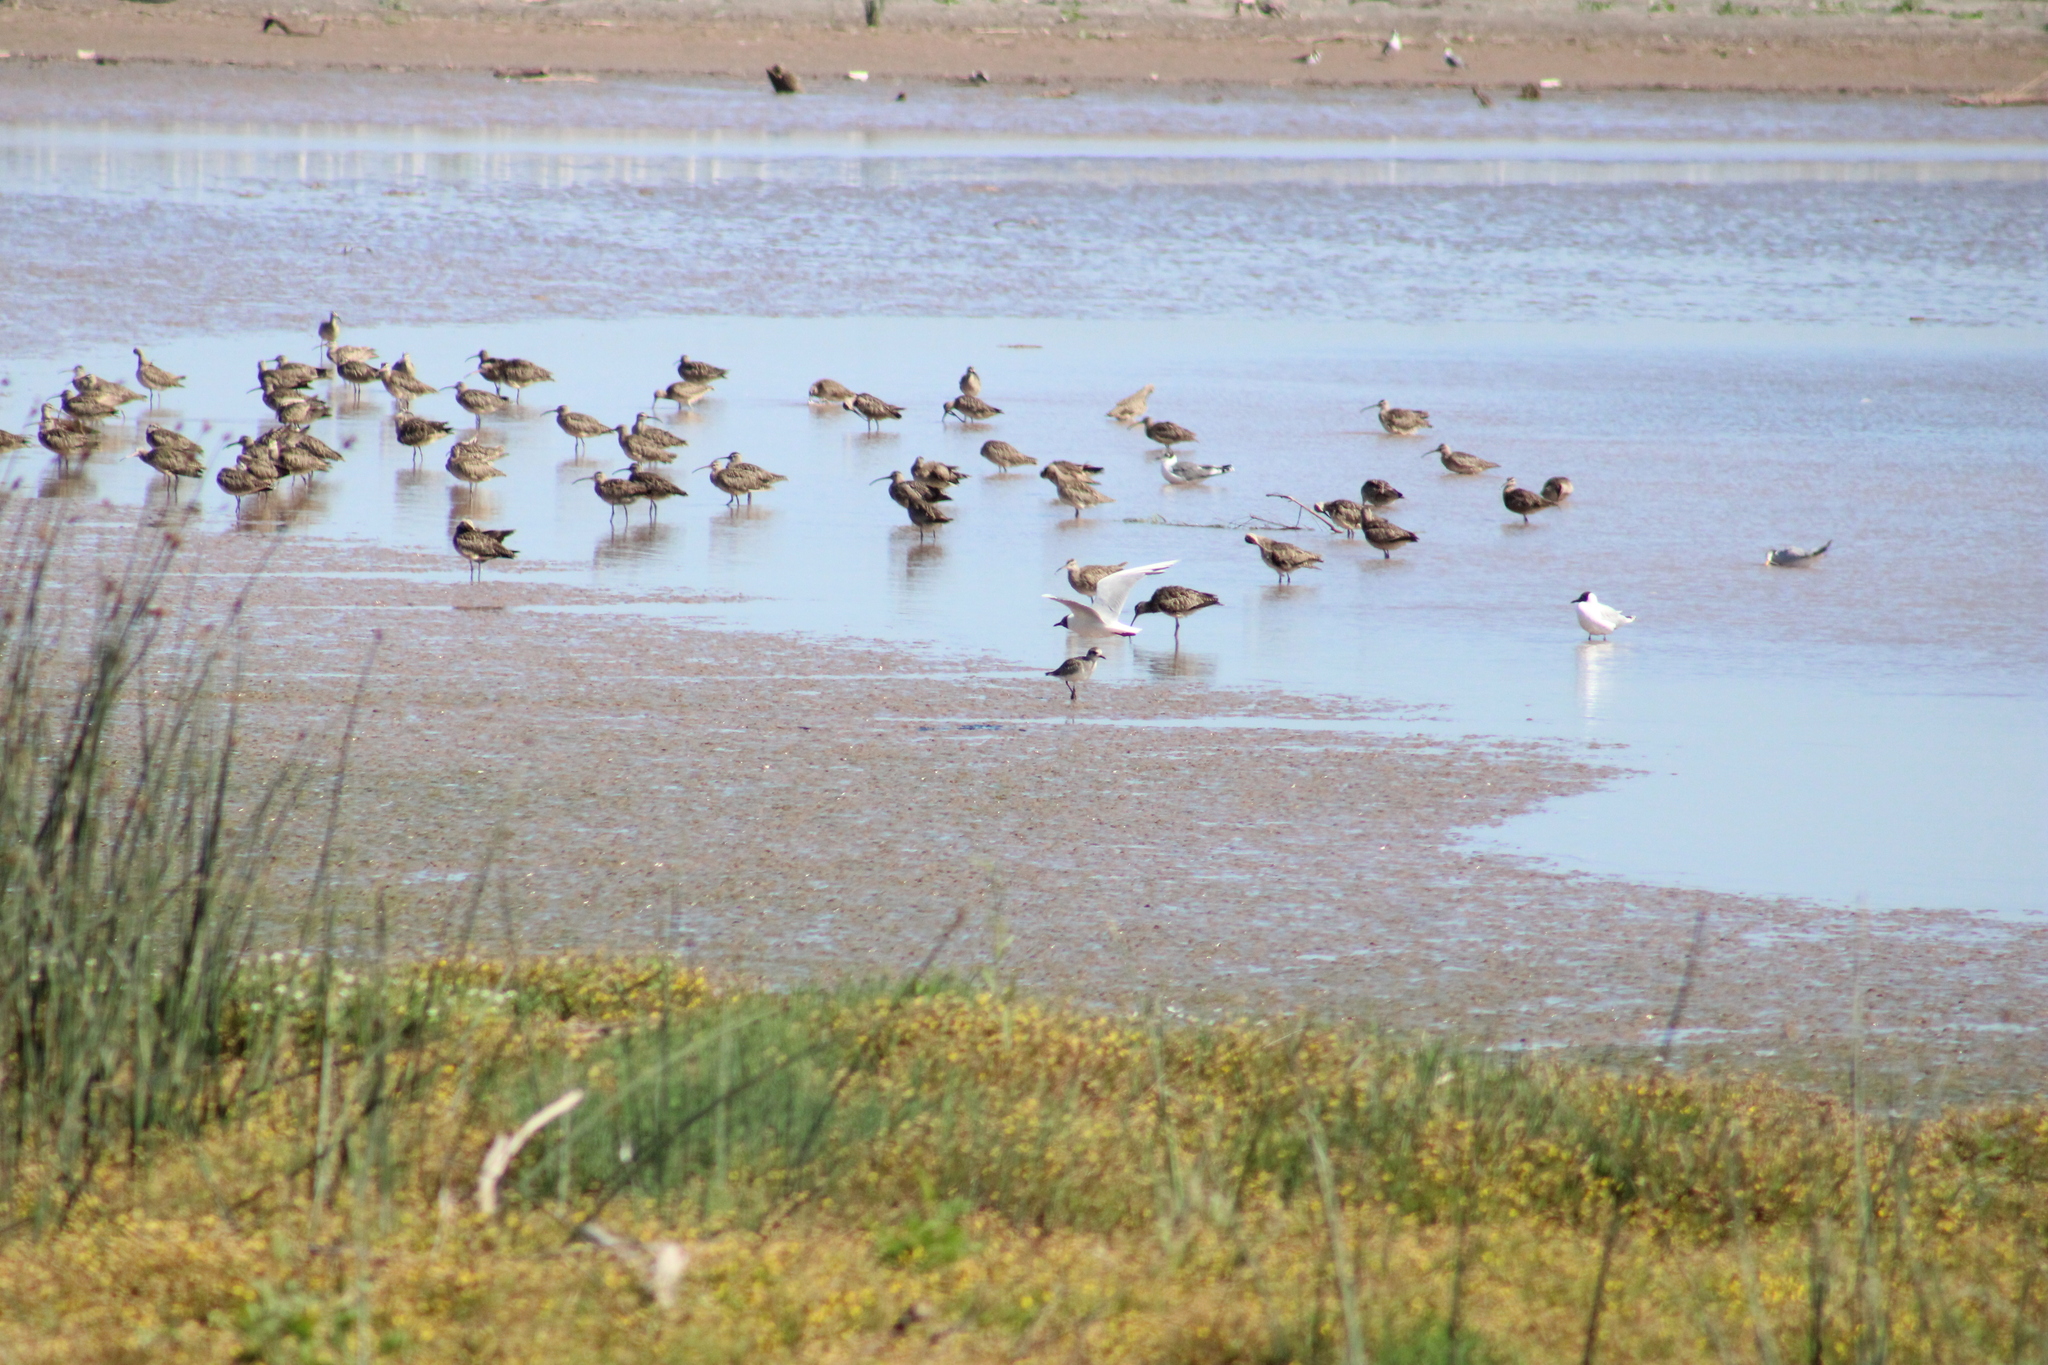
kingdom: Animalia
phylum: Chordata
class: Aves
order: Charadriiformes
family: Charadriidae
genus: Pluvialis
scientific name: Pluvialis squatarola
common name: Grey plover
